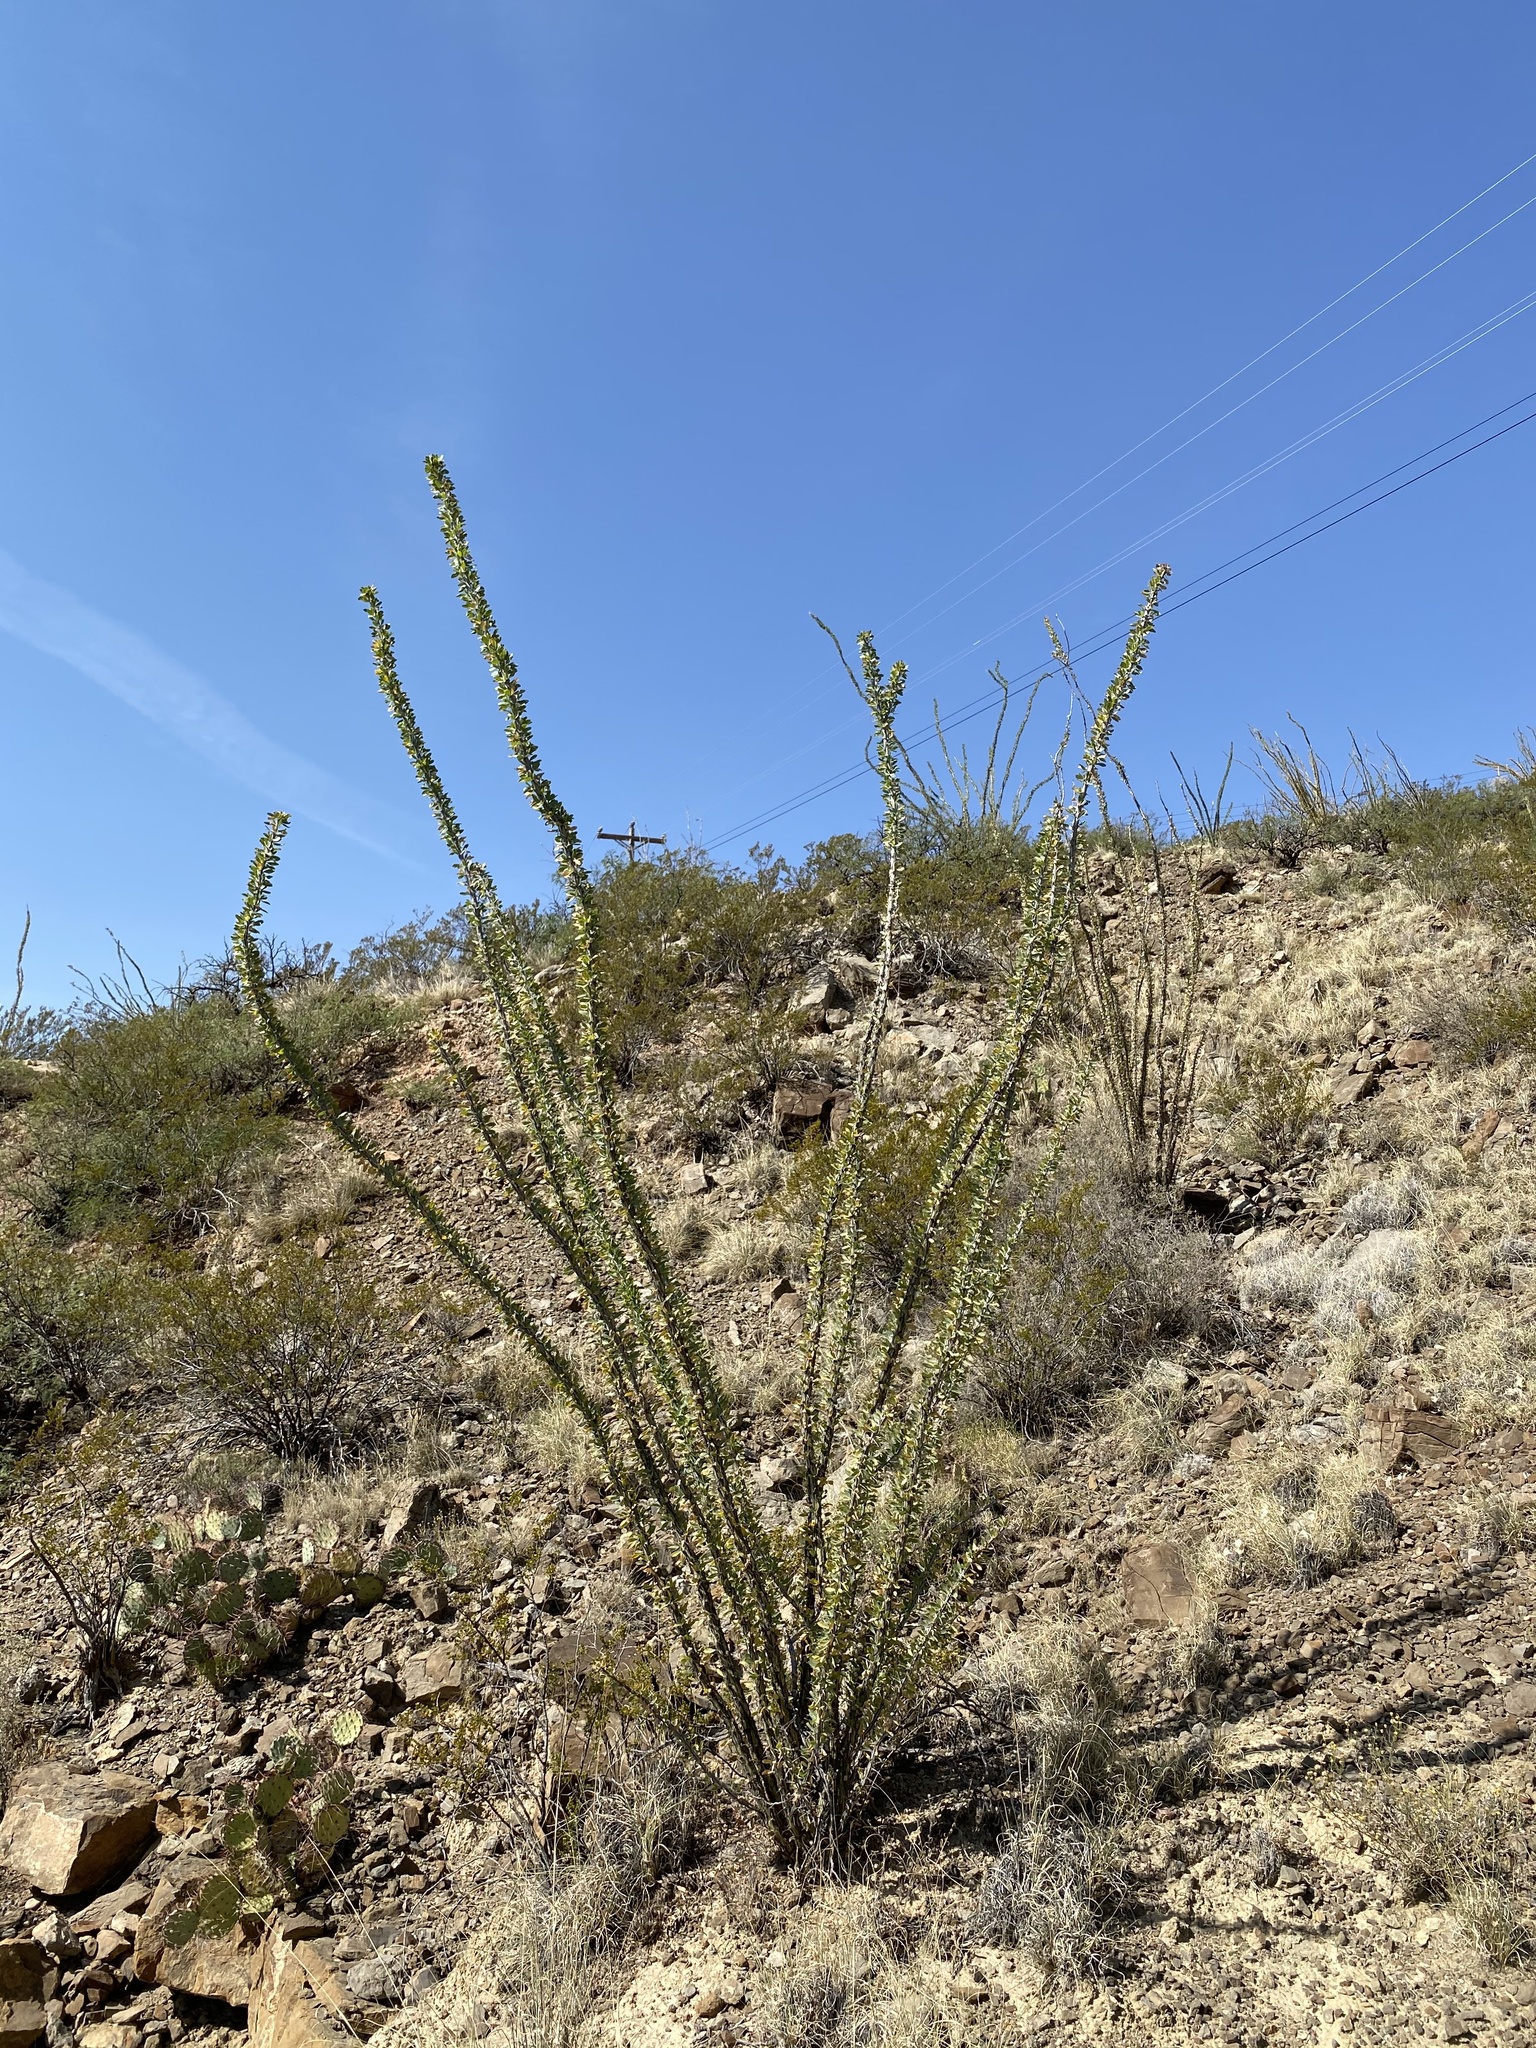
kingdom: Plantae
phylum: Tracheophyta
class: Magnoliopsida
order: Ericales
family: Fouquieriaceae
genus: Fouquieria
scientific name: Fouquieria splendens
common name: Vine-cactus
